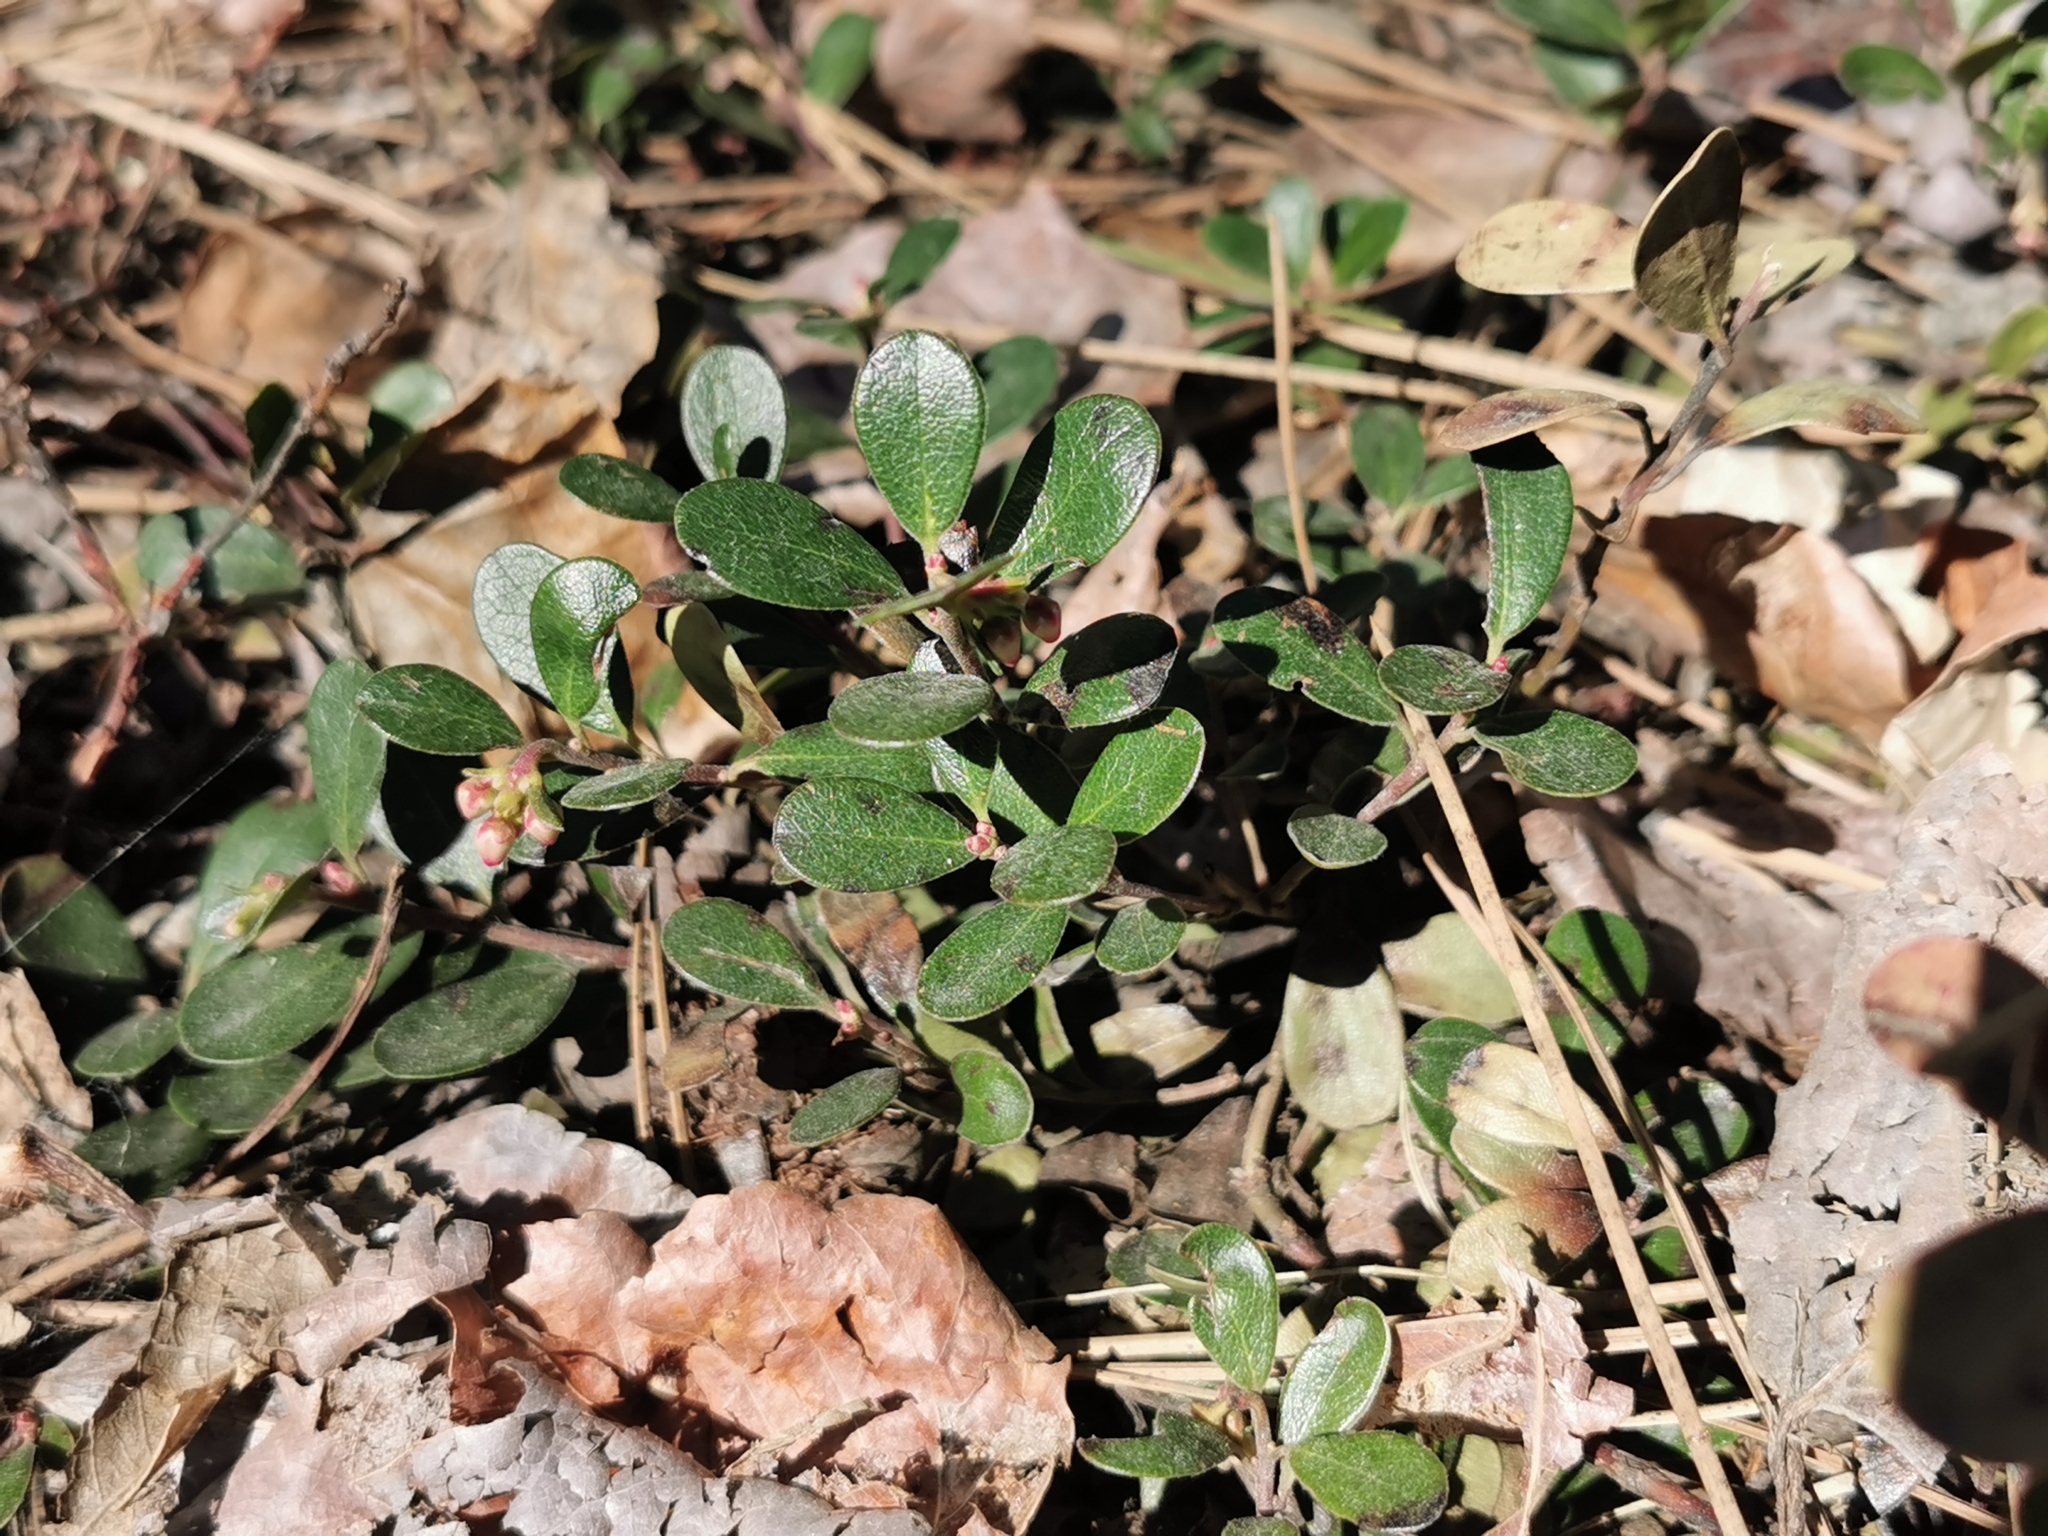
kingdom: Plantae
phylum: Tracheophyta
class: Magnoliopsida
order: Ericales
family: Ericaceae
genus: Arctostaphylos
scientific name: Arctostaphylos uva-ursi
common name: Bearberry
